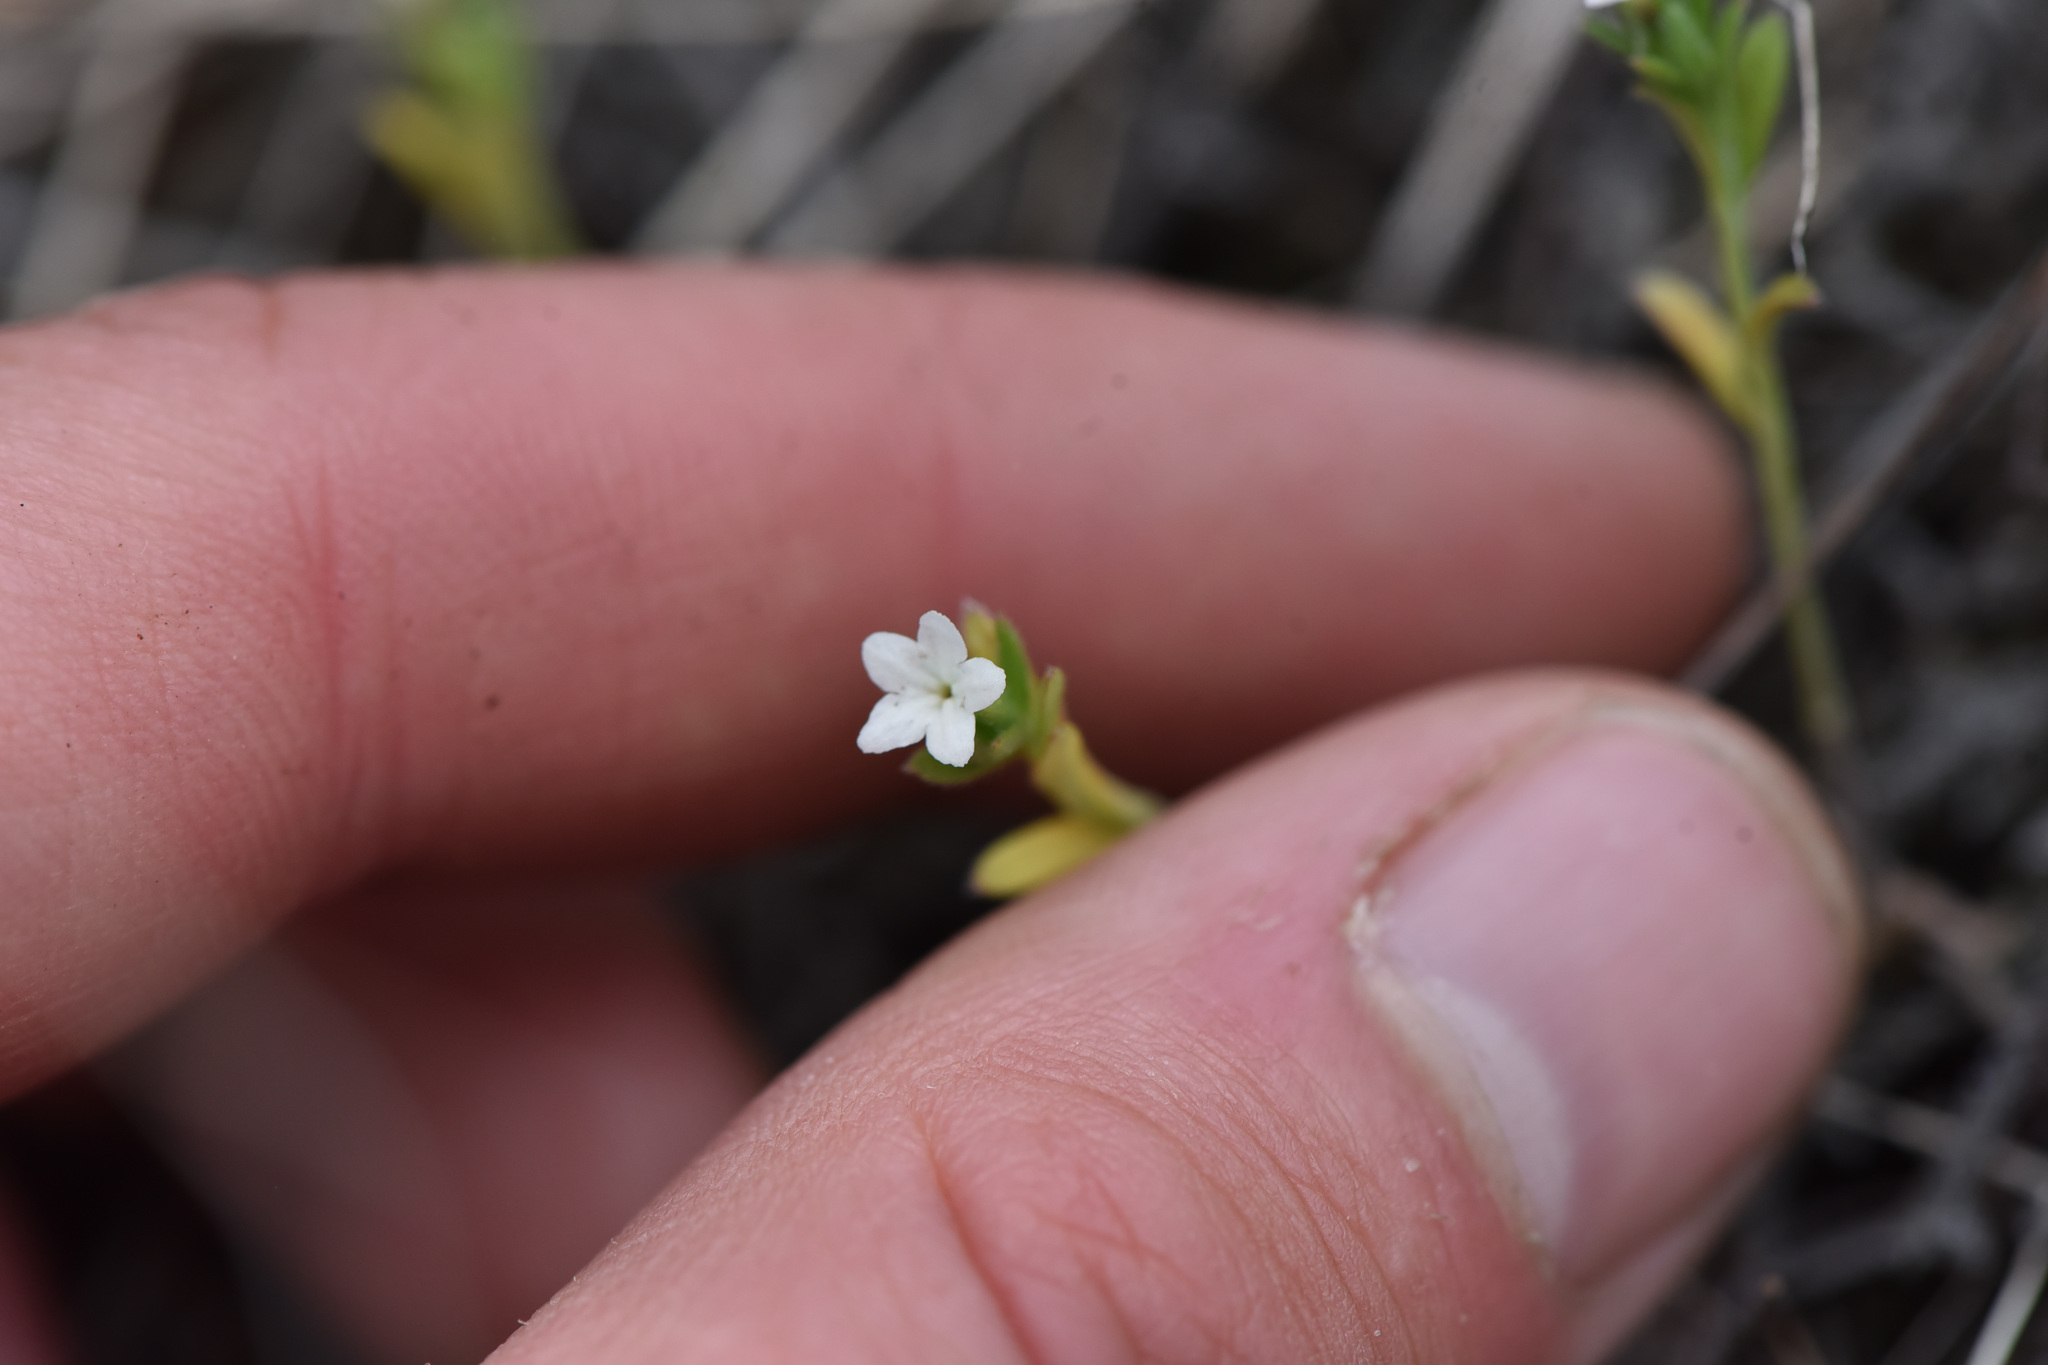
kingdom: Plantae
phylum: Tracheophyta
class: Magnoliopsida
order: Boraginales
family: Boraginaceae
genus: Buglossoides
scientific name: Buglossoides arvensis
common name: Corn gromwell
